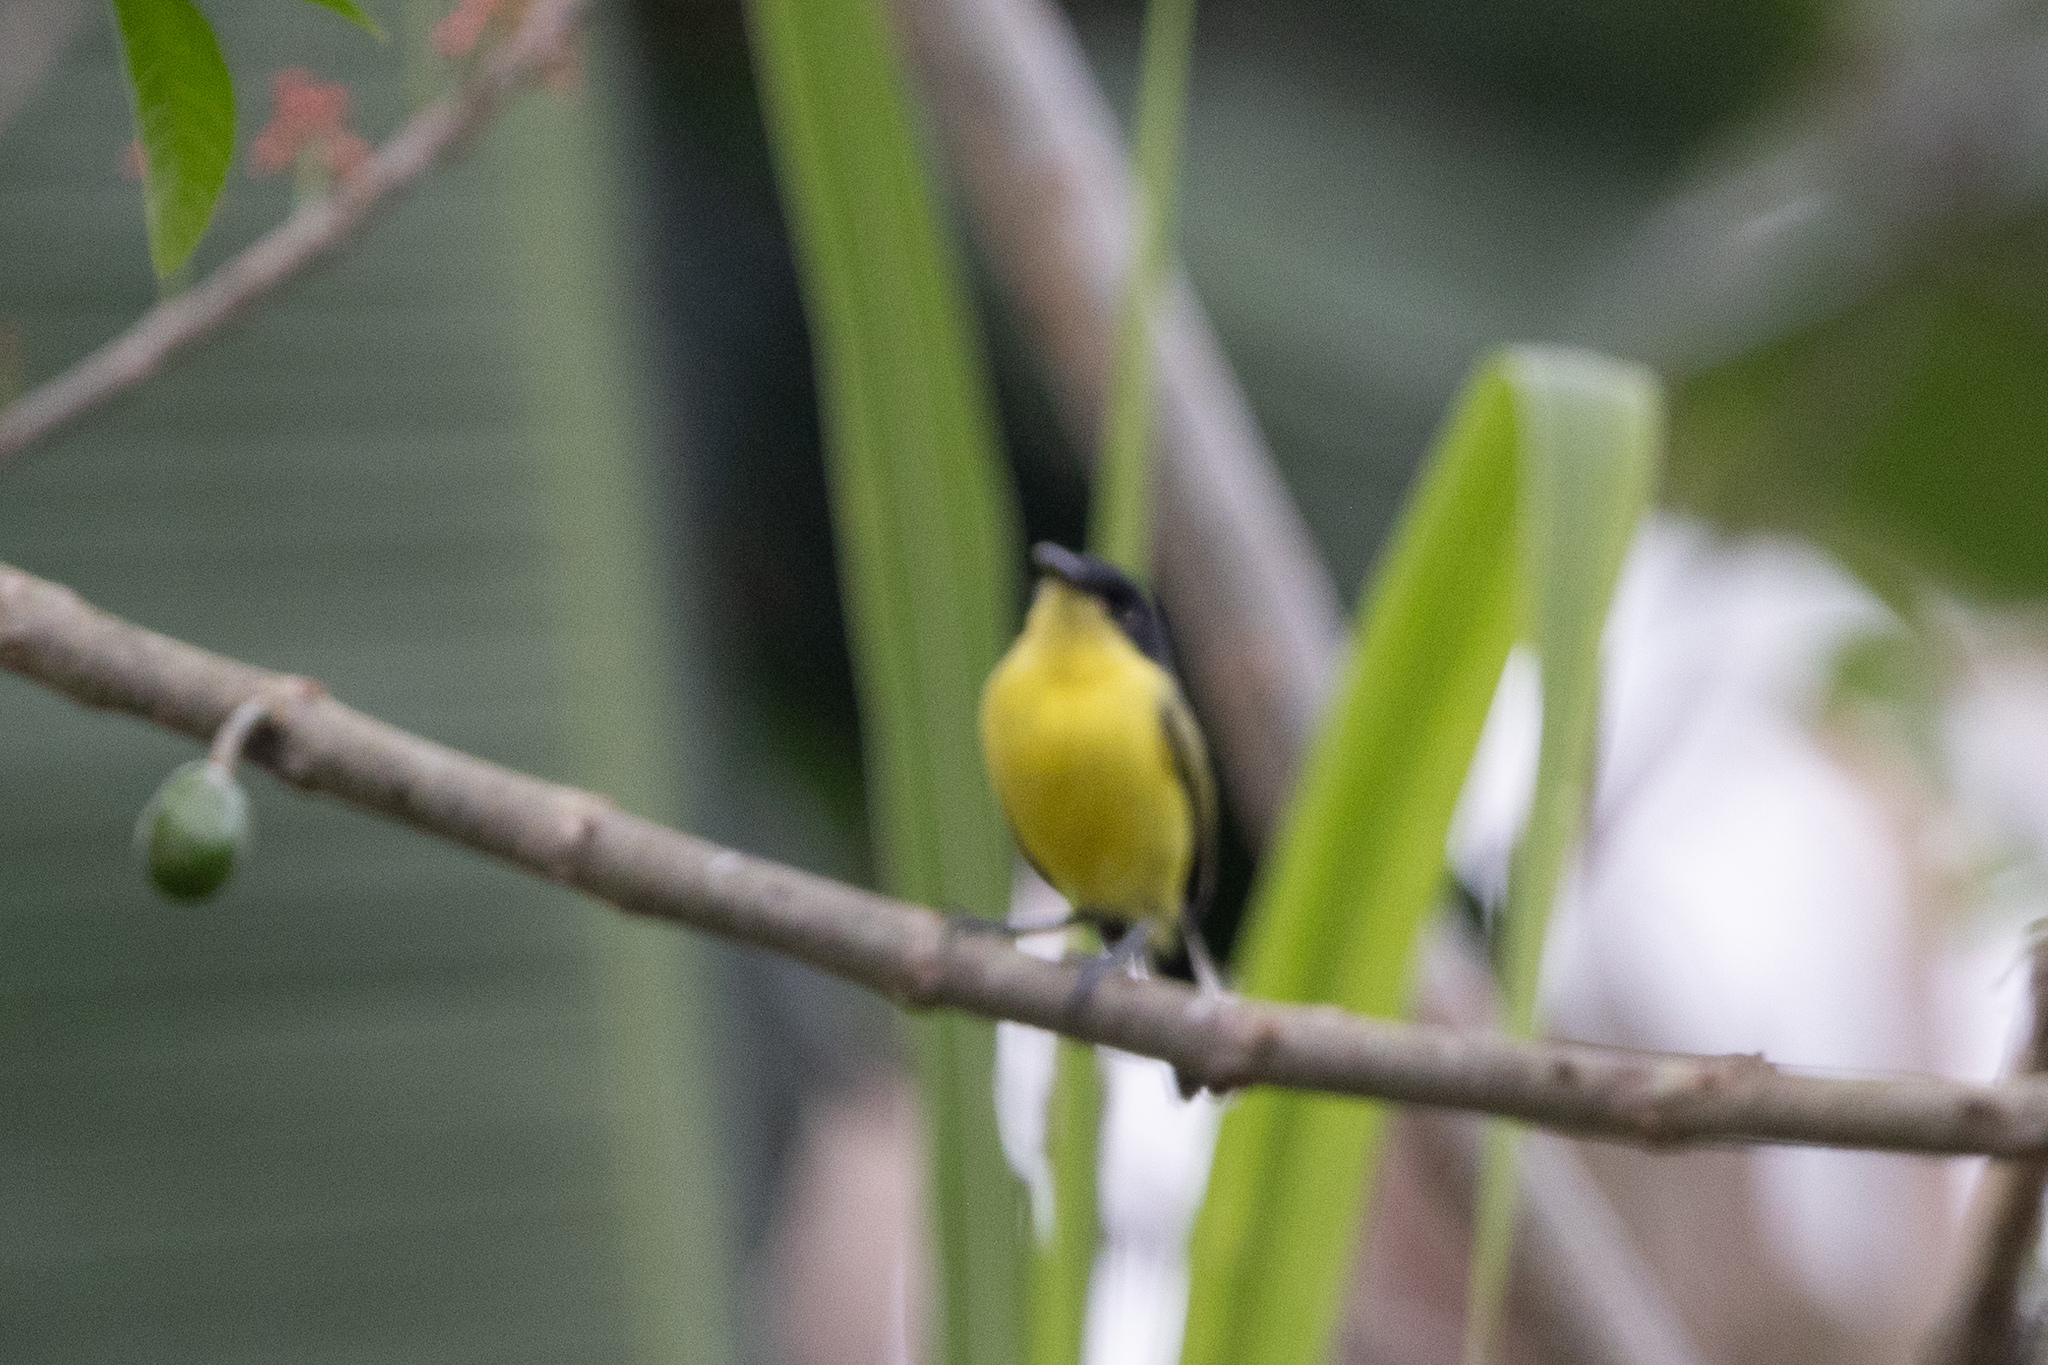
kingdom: Animalia
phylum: Chordata
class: Aves
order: Passeriformes
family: Tyrannidae
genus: Todirostrum
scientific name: Todirostrum cinereum
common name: Common tody-flycatcher
